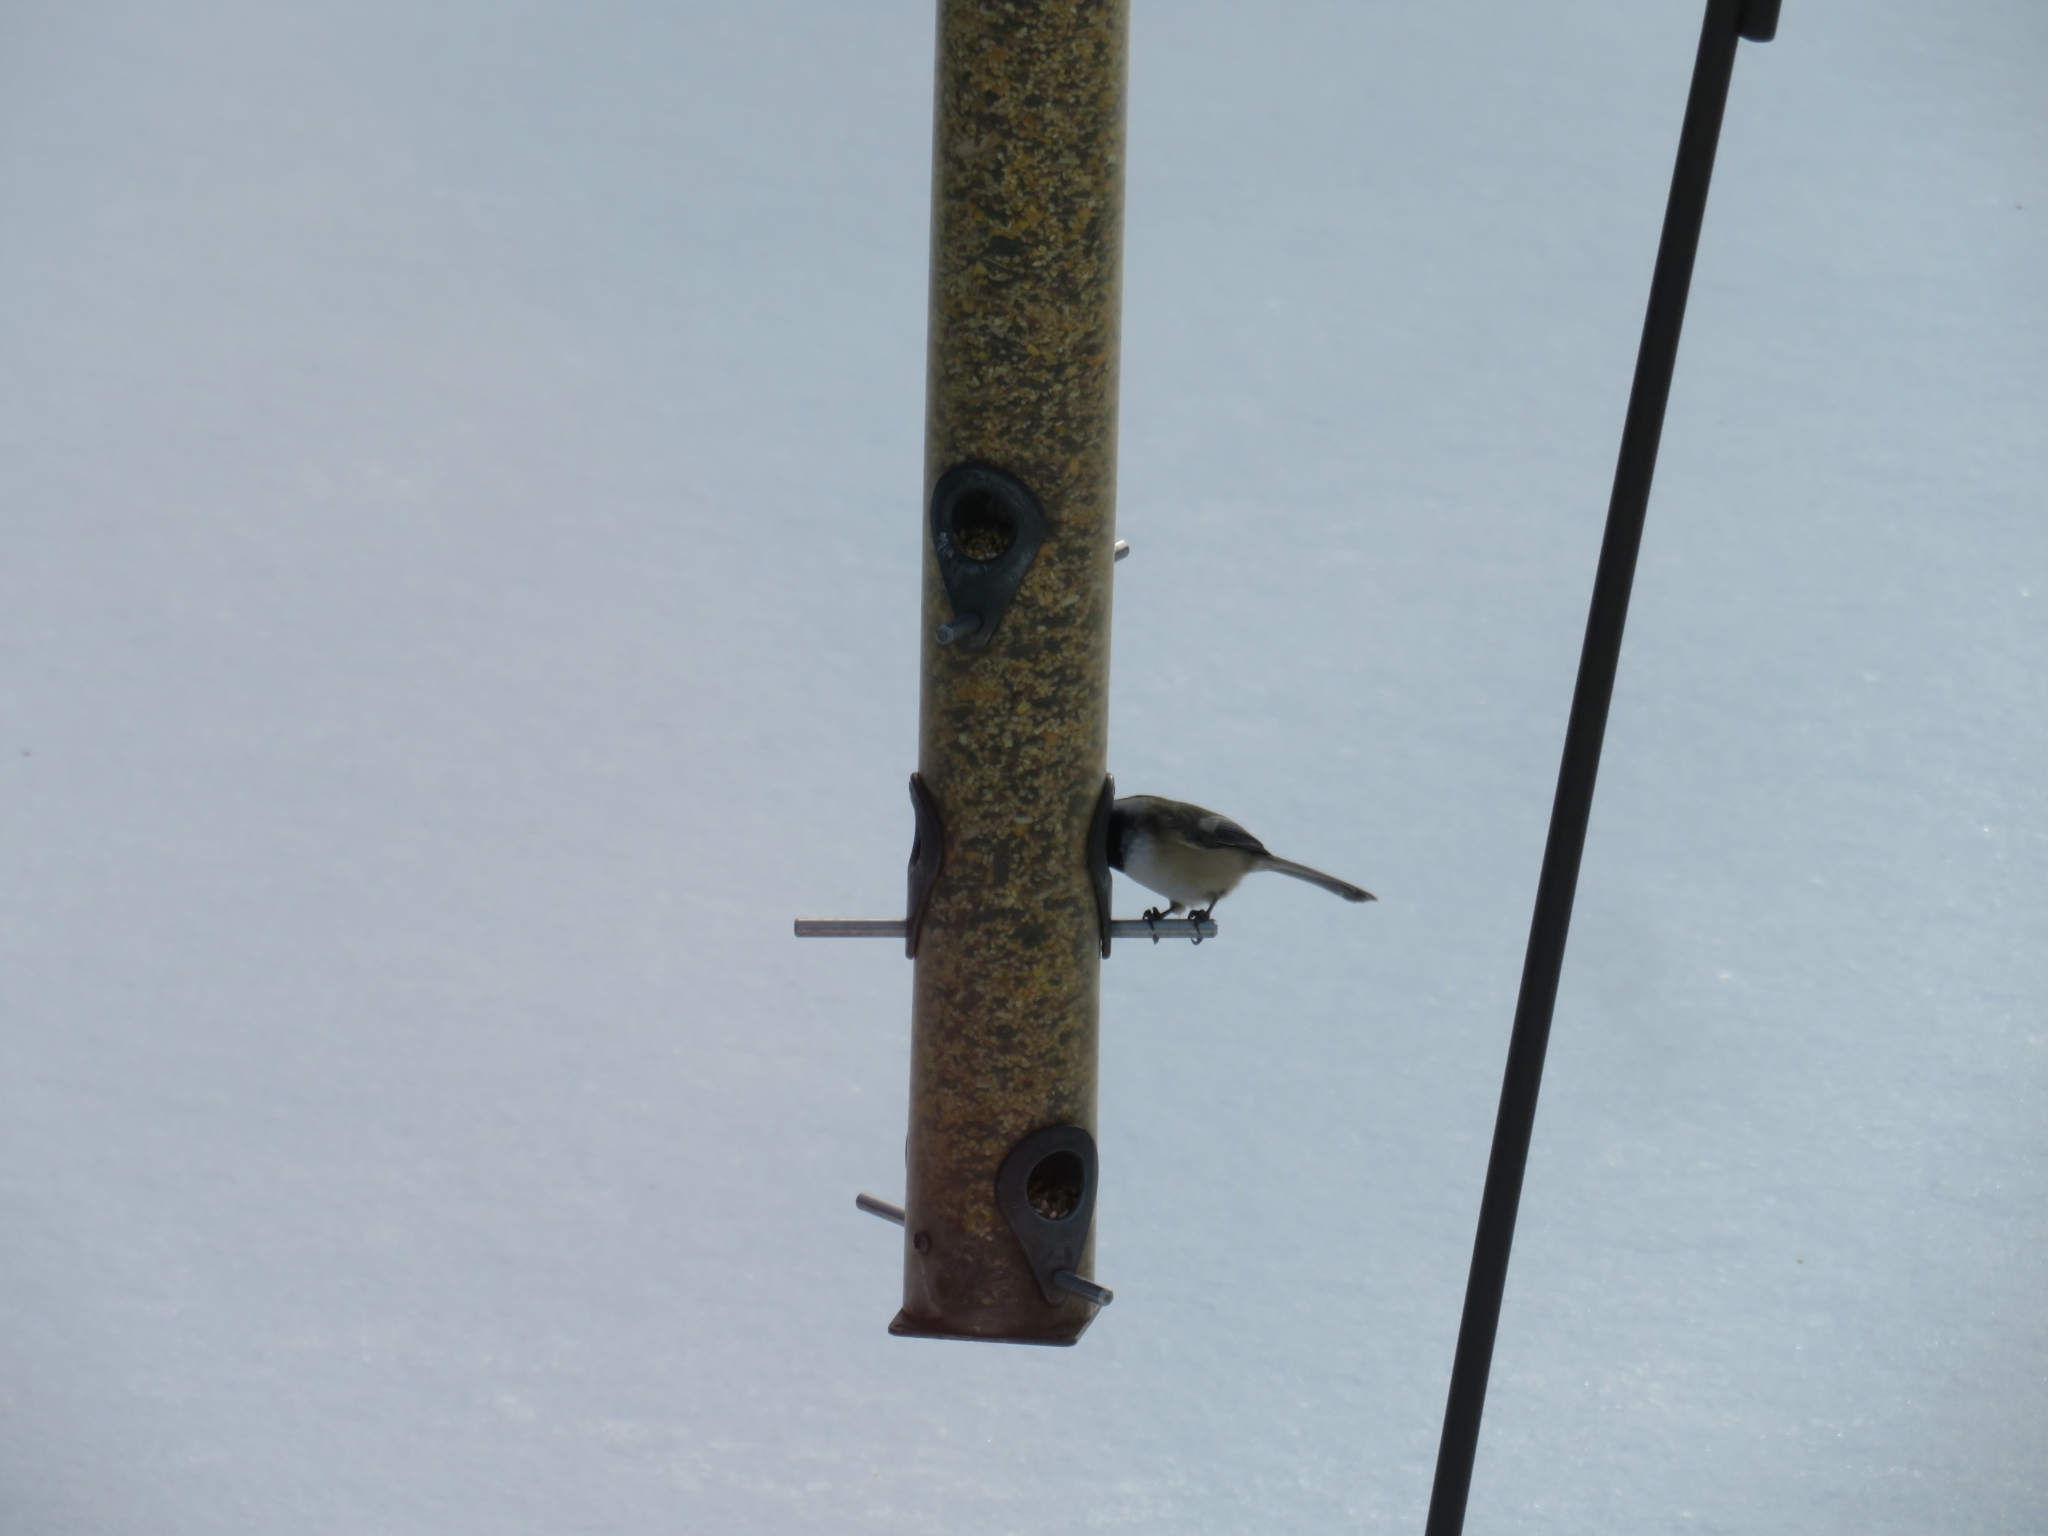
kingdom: Animalia
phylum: Chordata
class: Aves
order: Passeriformes
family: Paridae
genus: Poecile
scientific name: Poecile atricapillus
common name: Black-capped chickadee
